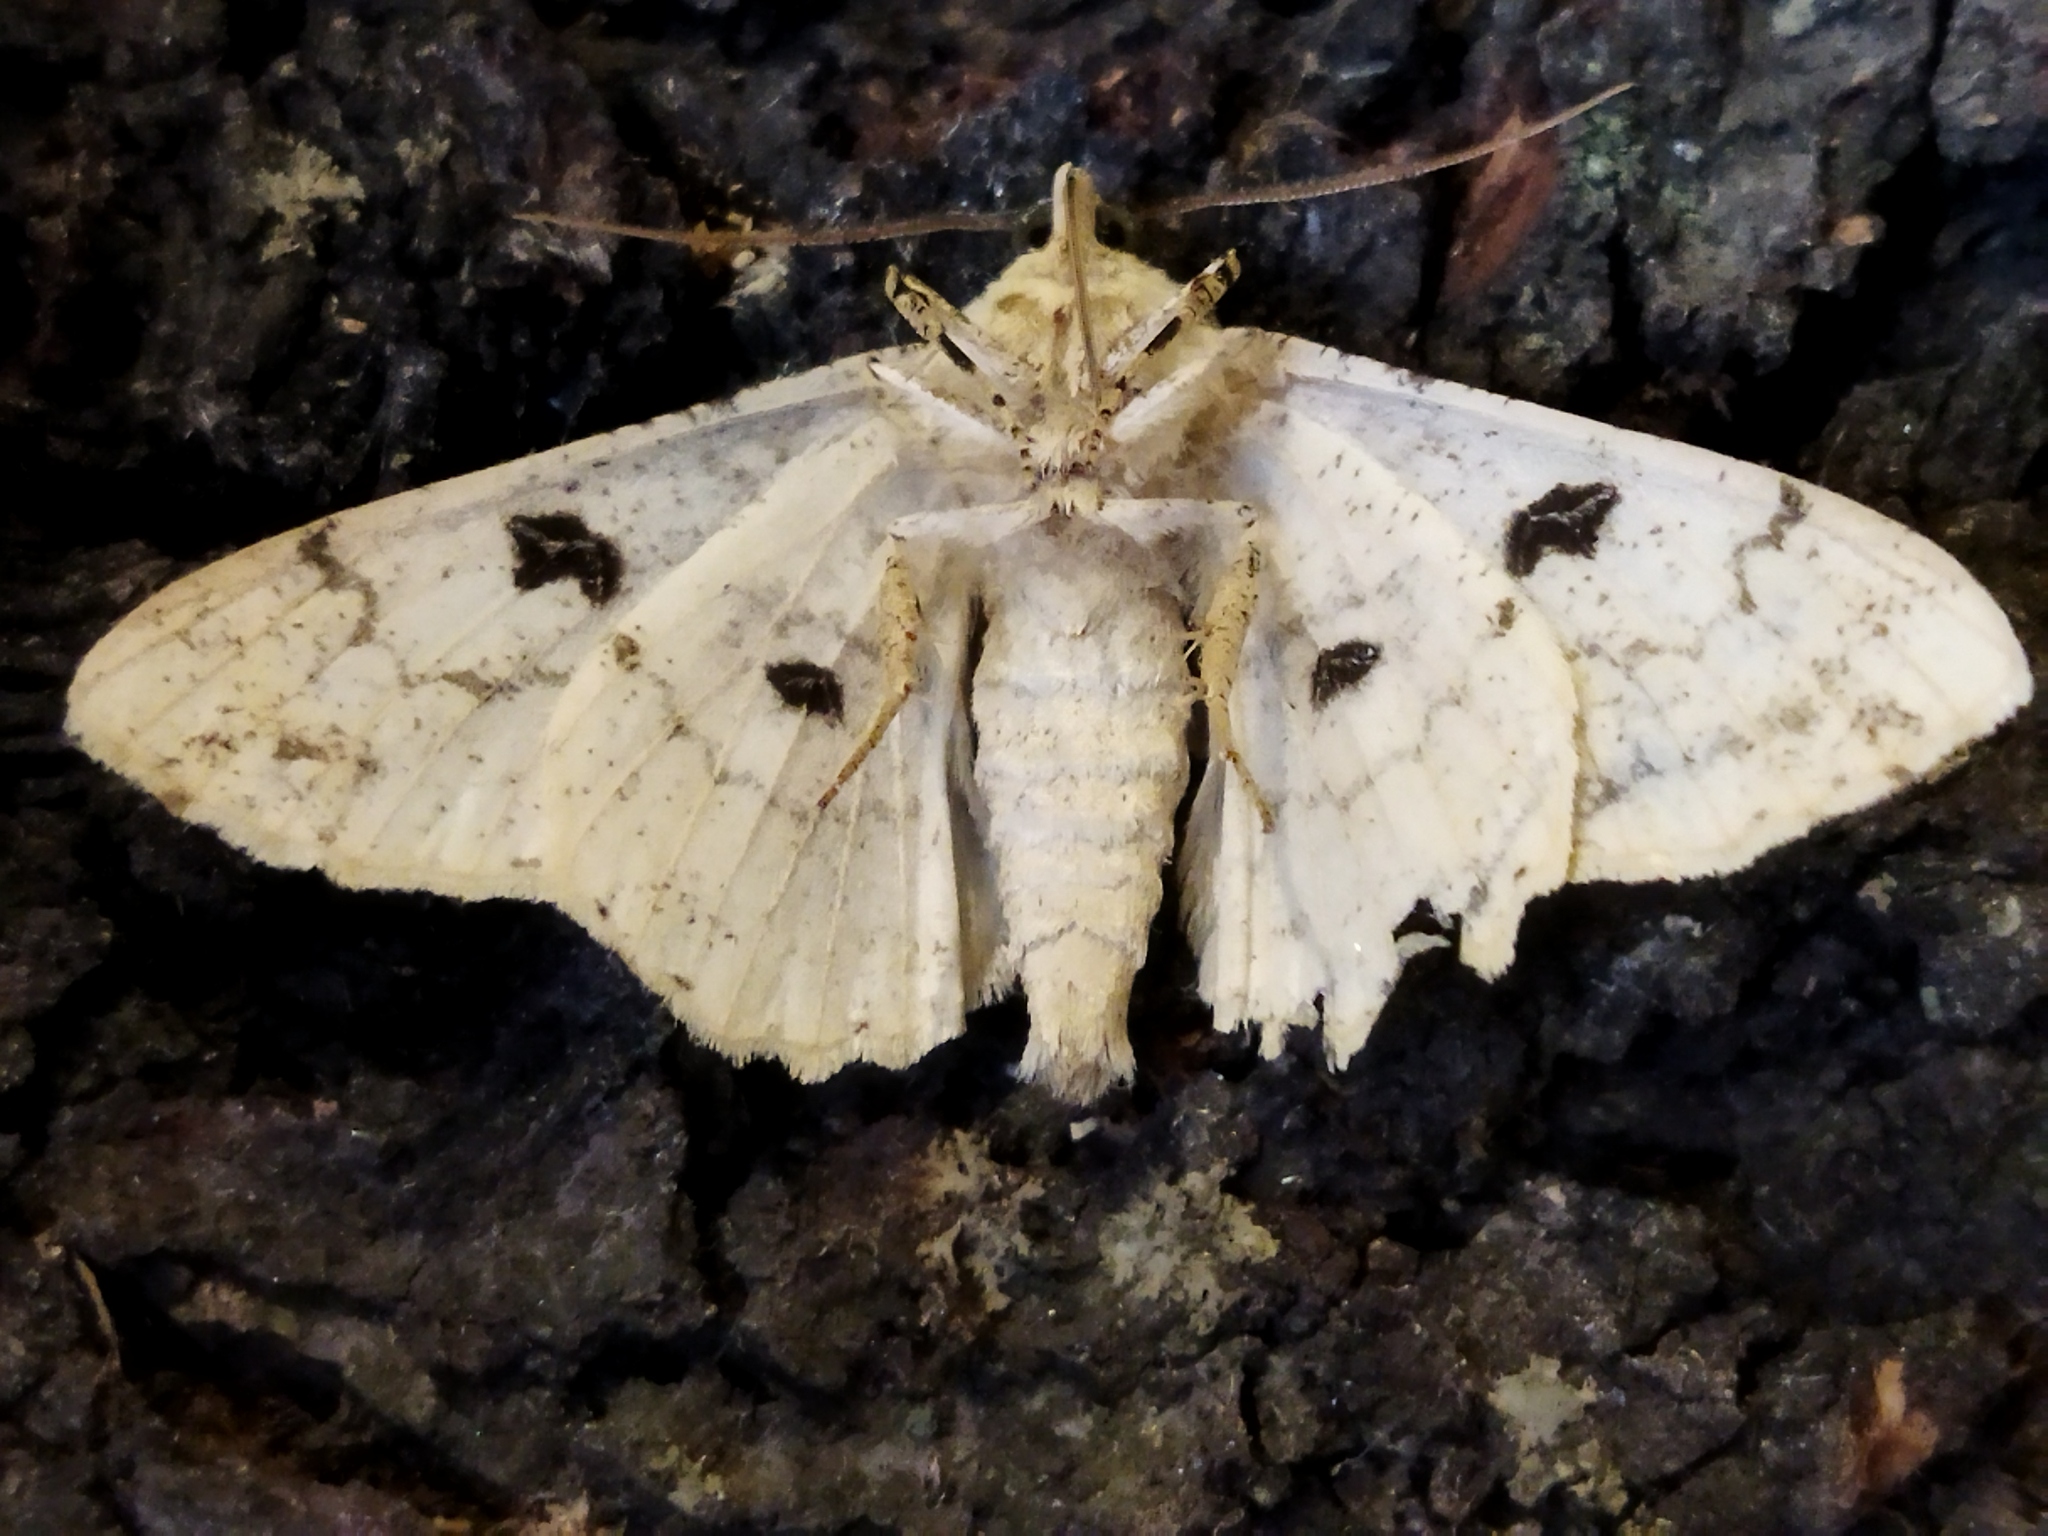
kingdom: Animalia
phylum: Arthropoda
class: Insecta
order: Lepidoptera
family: Geometridae
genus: Ascotis
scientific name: Ascotis selenaria
